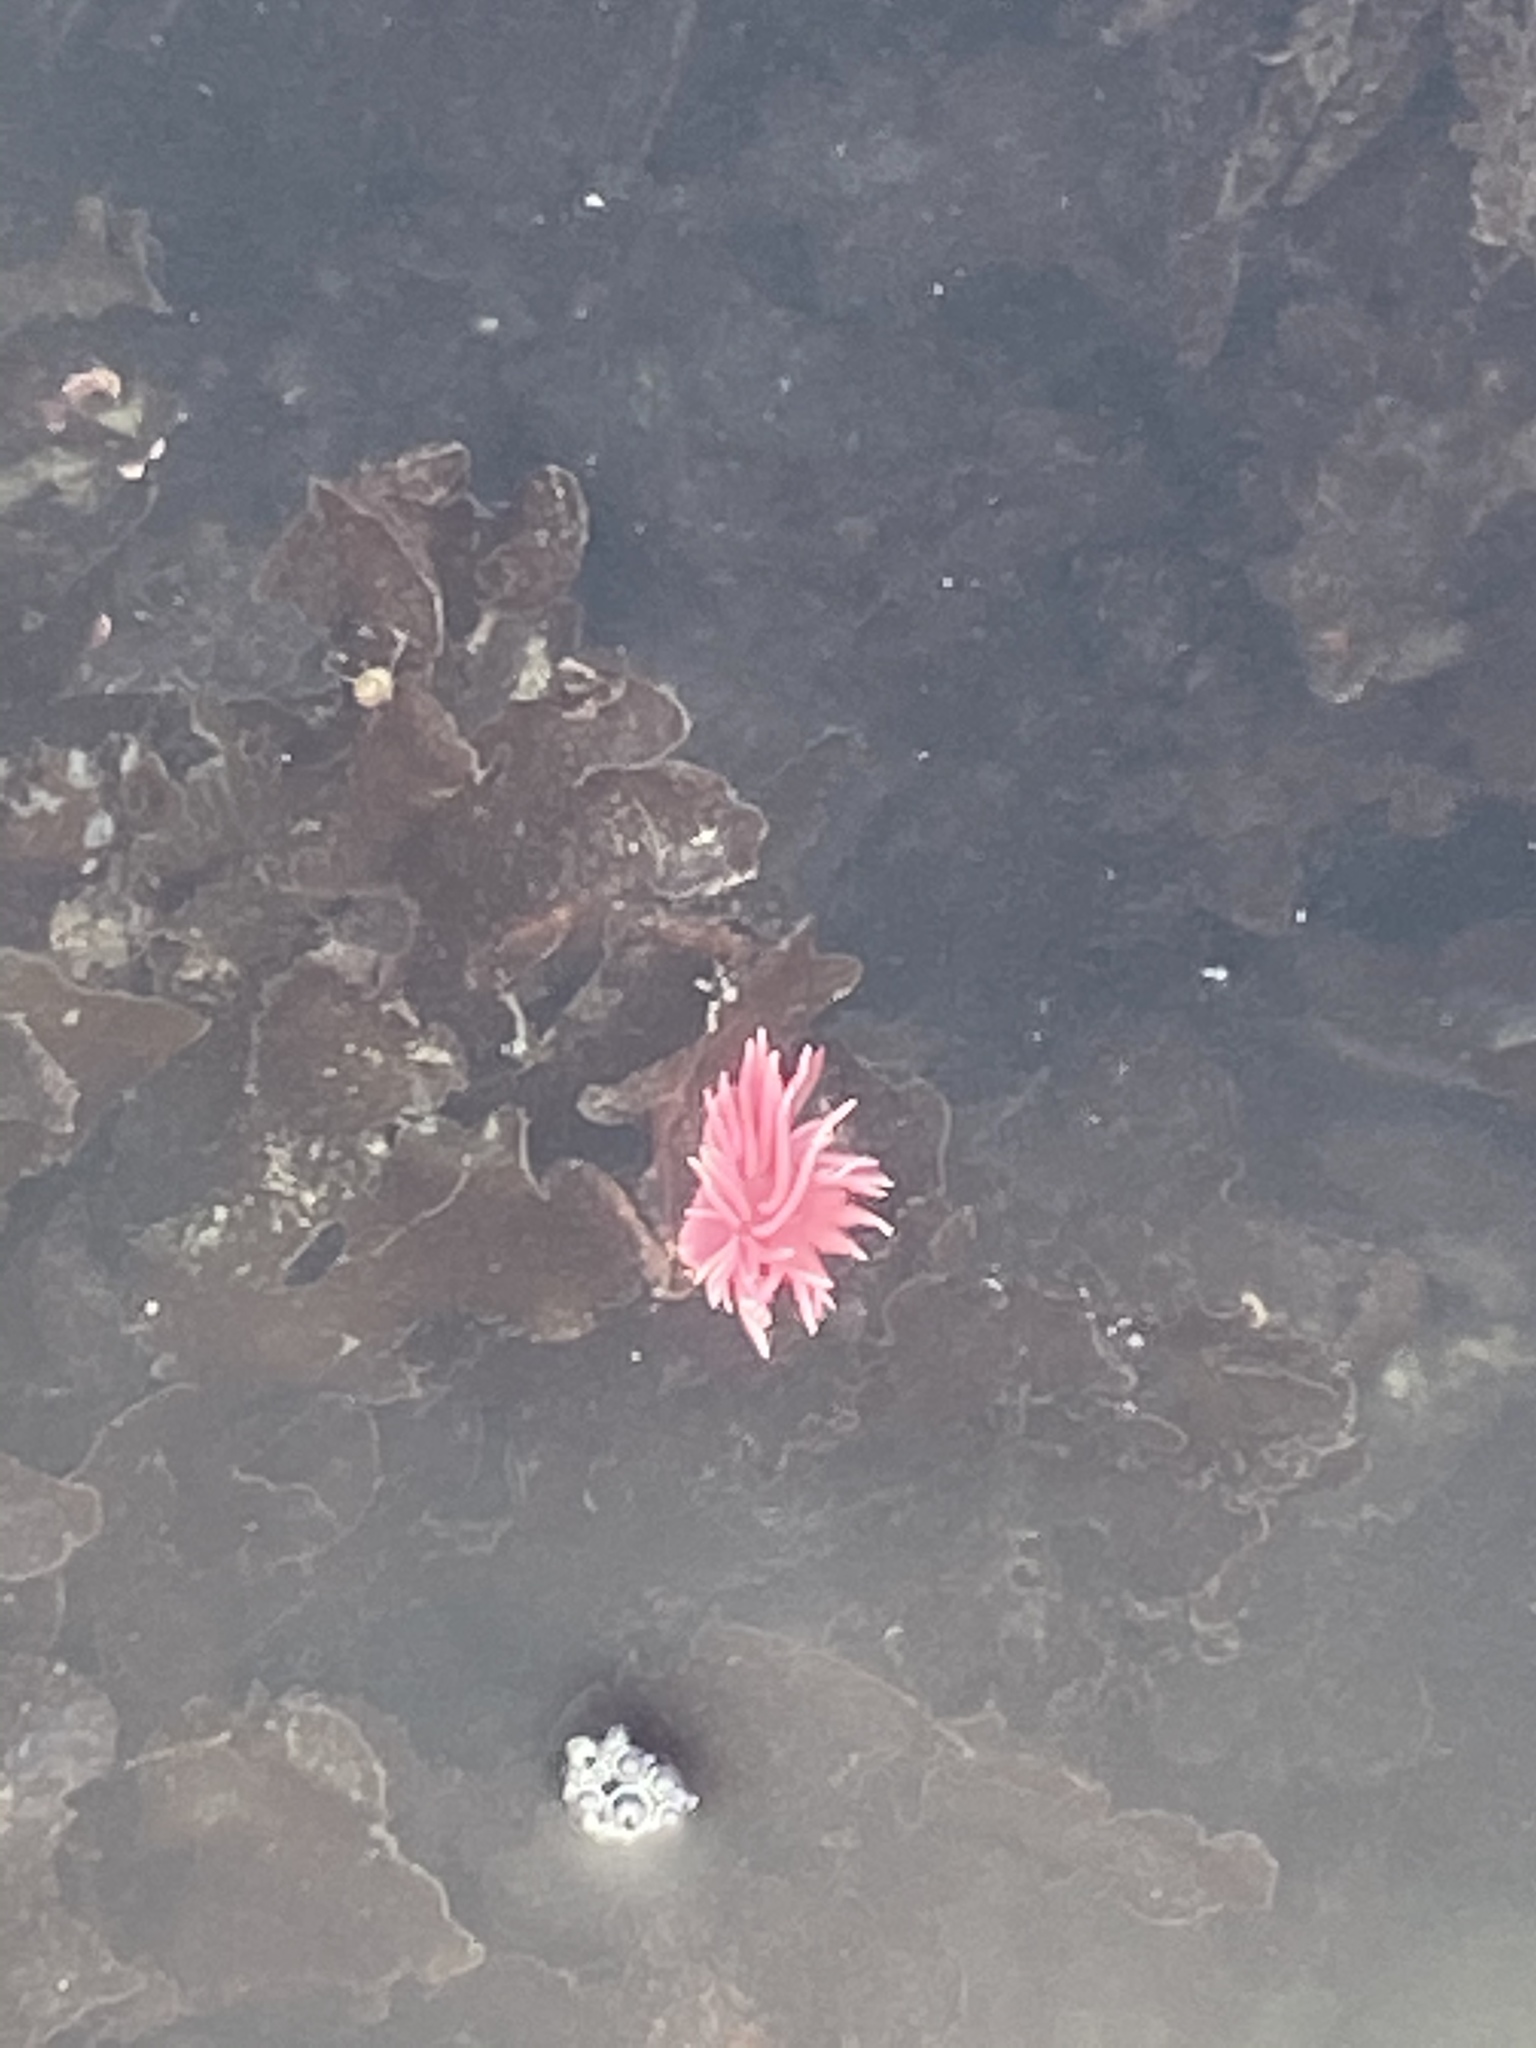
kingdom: Animalia
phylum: Mollusca
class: Gastropoda
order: Nudibranchia
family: Goniodorididae
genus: Okenia
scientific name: Okenia
